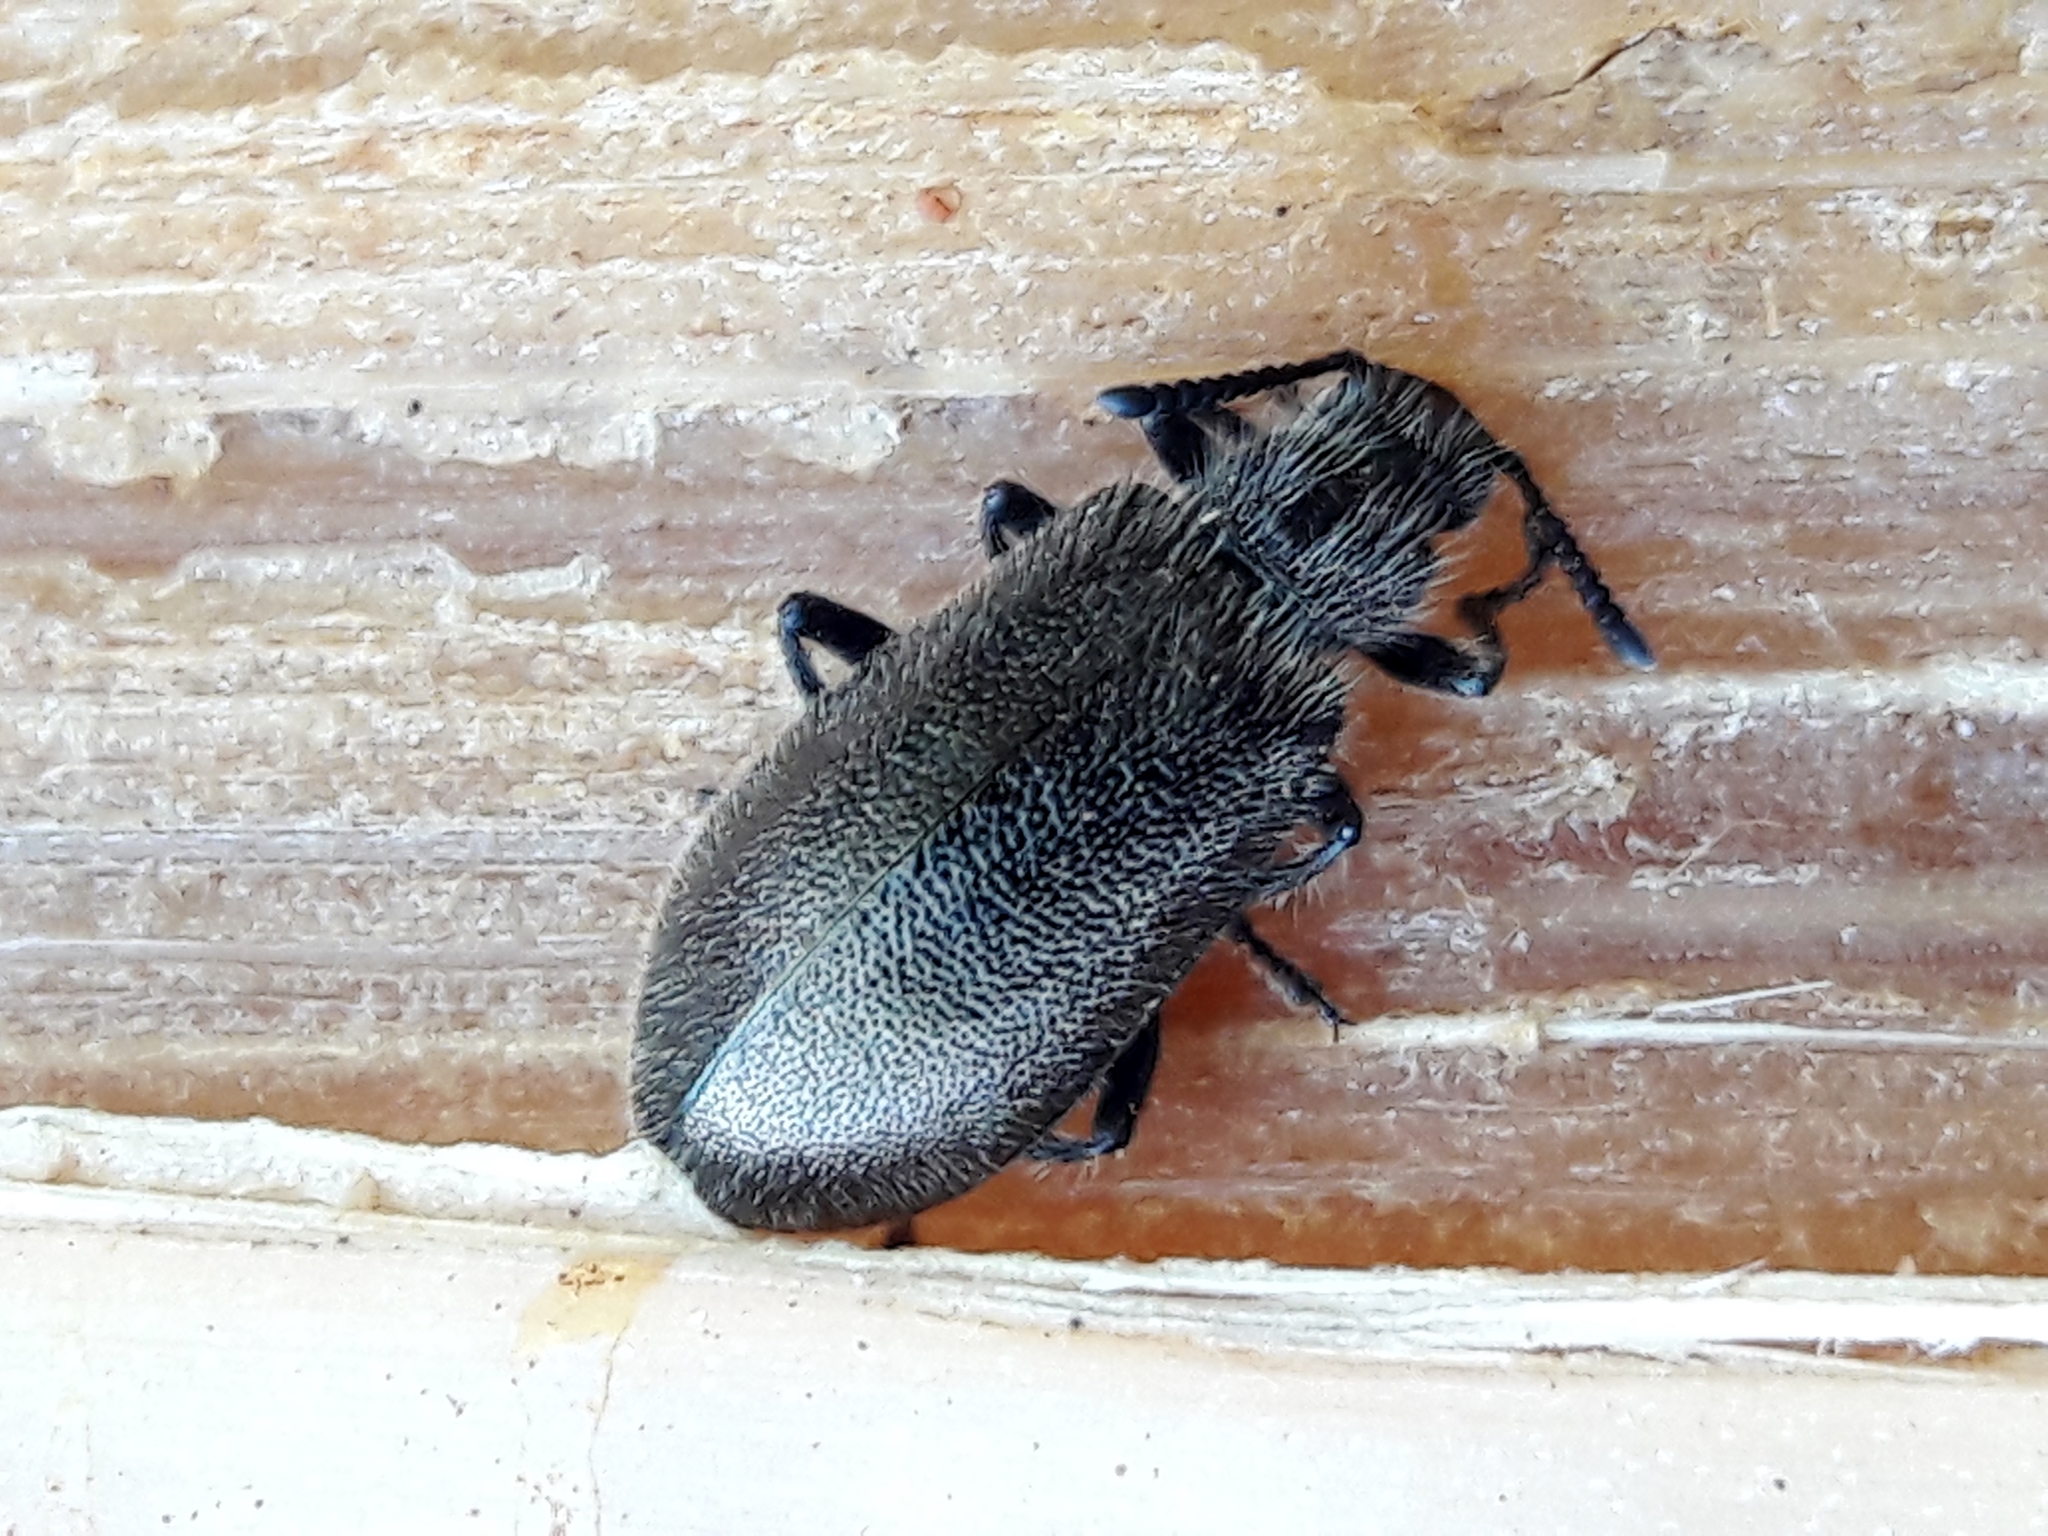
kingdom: Animalia
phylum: Arthropoda
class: Insecta
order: Coleoptera
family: Tenebrionidae
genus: Lagria
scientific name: Lagria villosa
